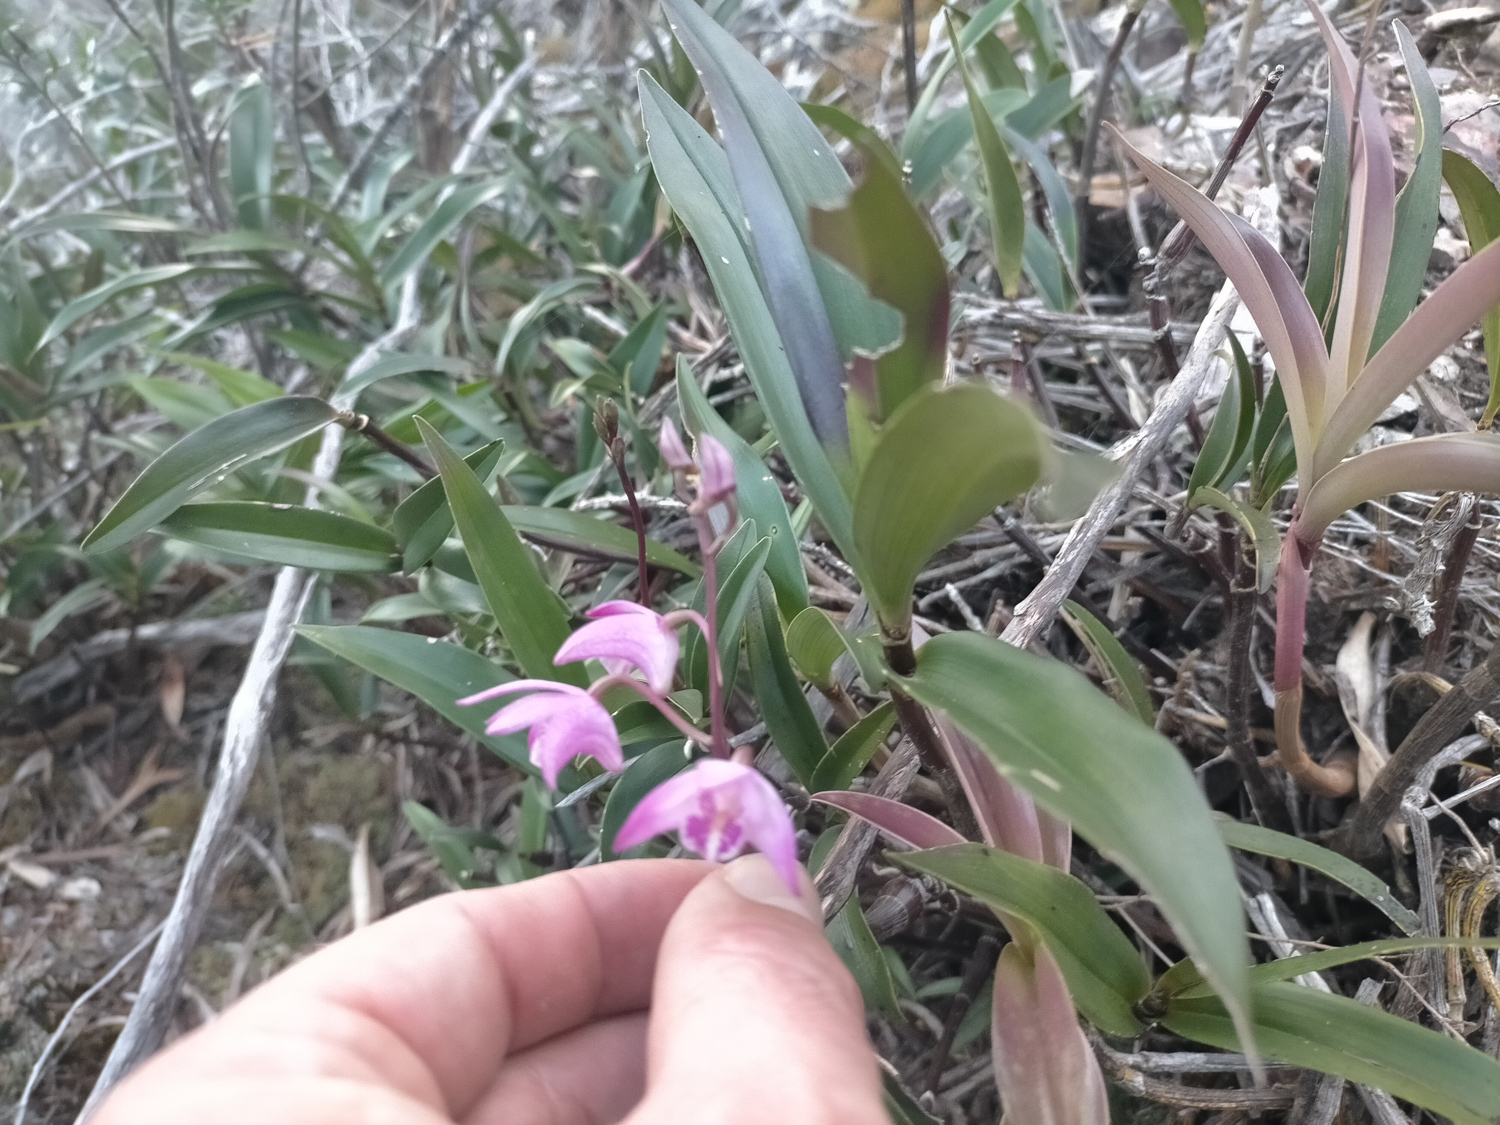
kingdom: Plantae
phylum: Tracheophyta
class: Liliopsida
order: Asparagales
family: Orchidaceae
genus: Dendrobium
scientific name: Dendrobium kingianum
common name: Pink rock orchid
